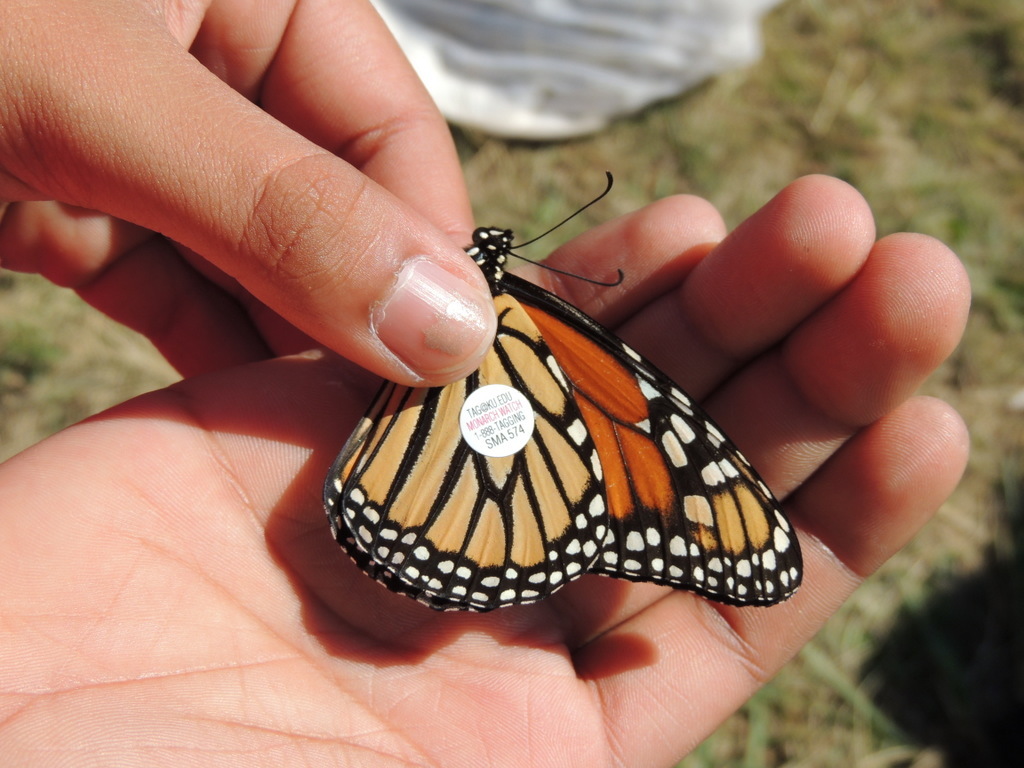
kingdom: Animalia
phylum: Arthropoda
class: Insecta
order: Lepidoptera
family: Nymphalidae
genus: Danaus
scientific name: Danaus plexippus
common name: Monarch
